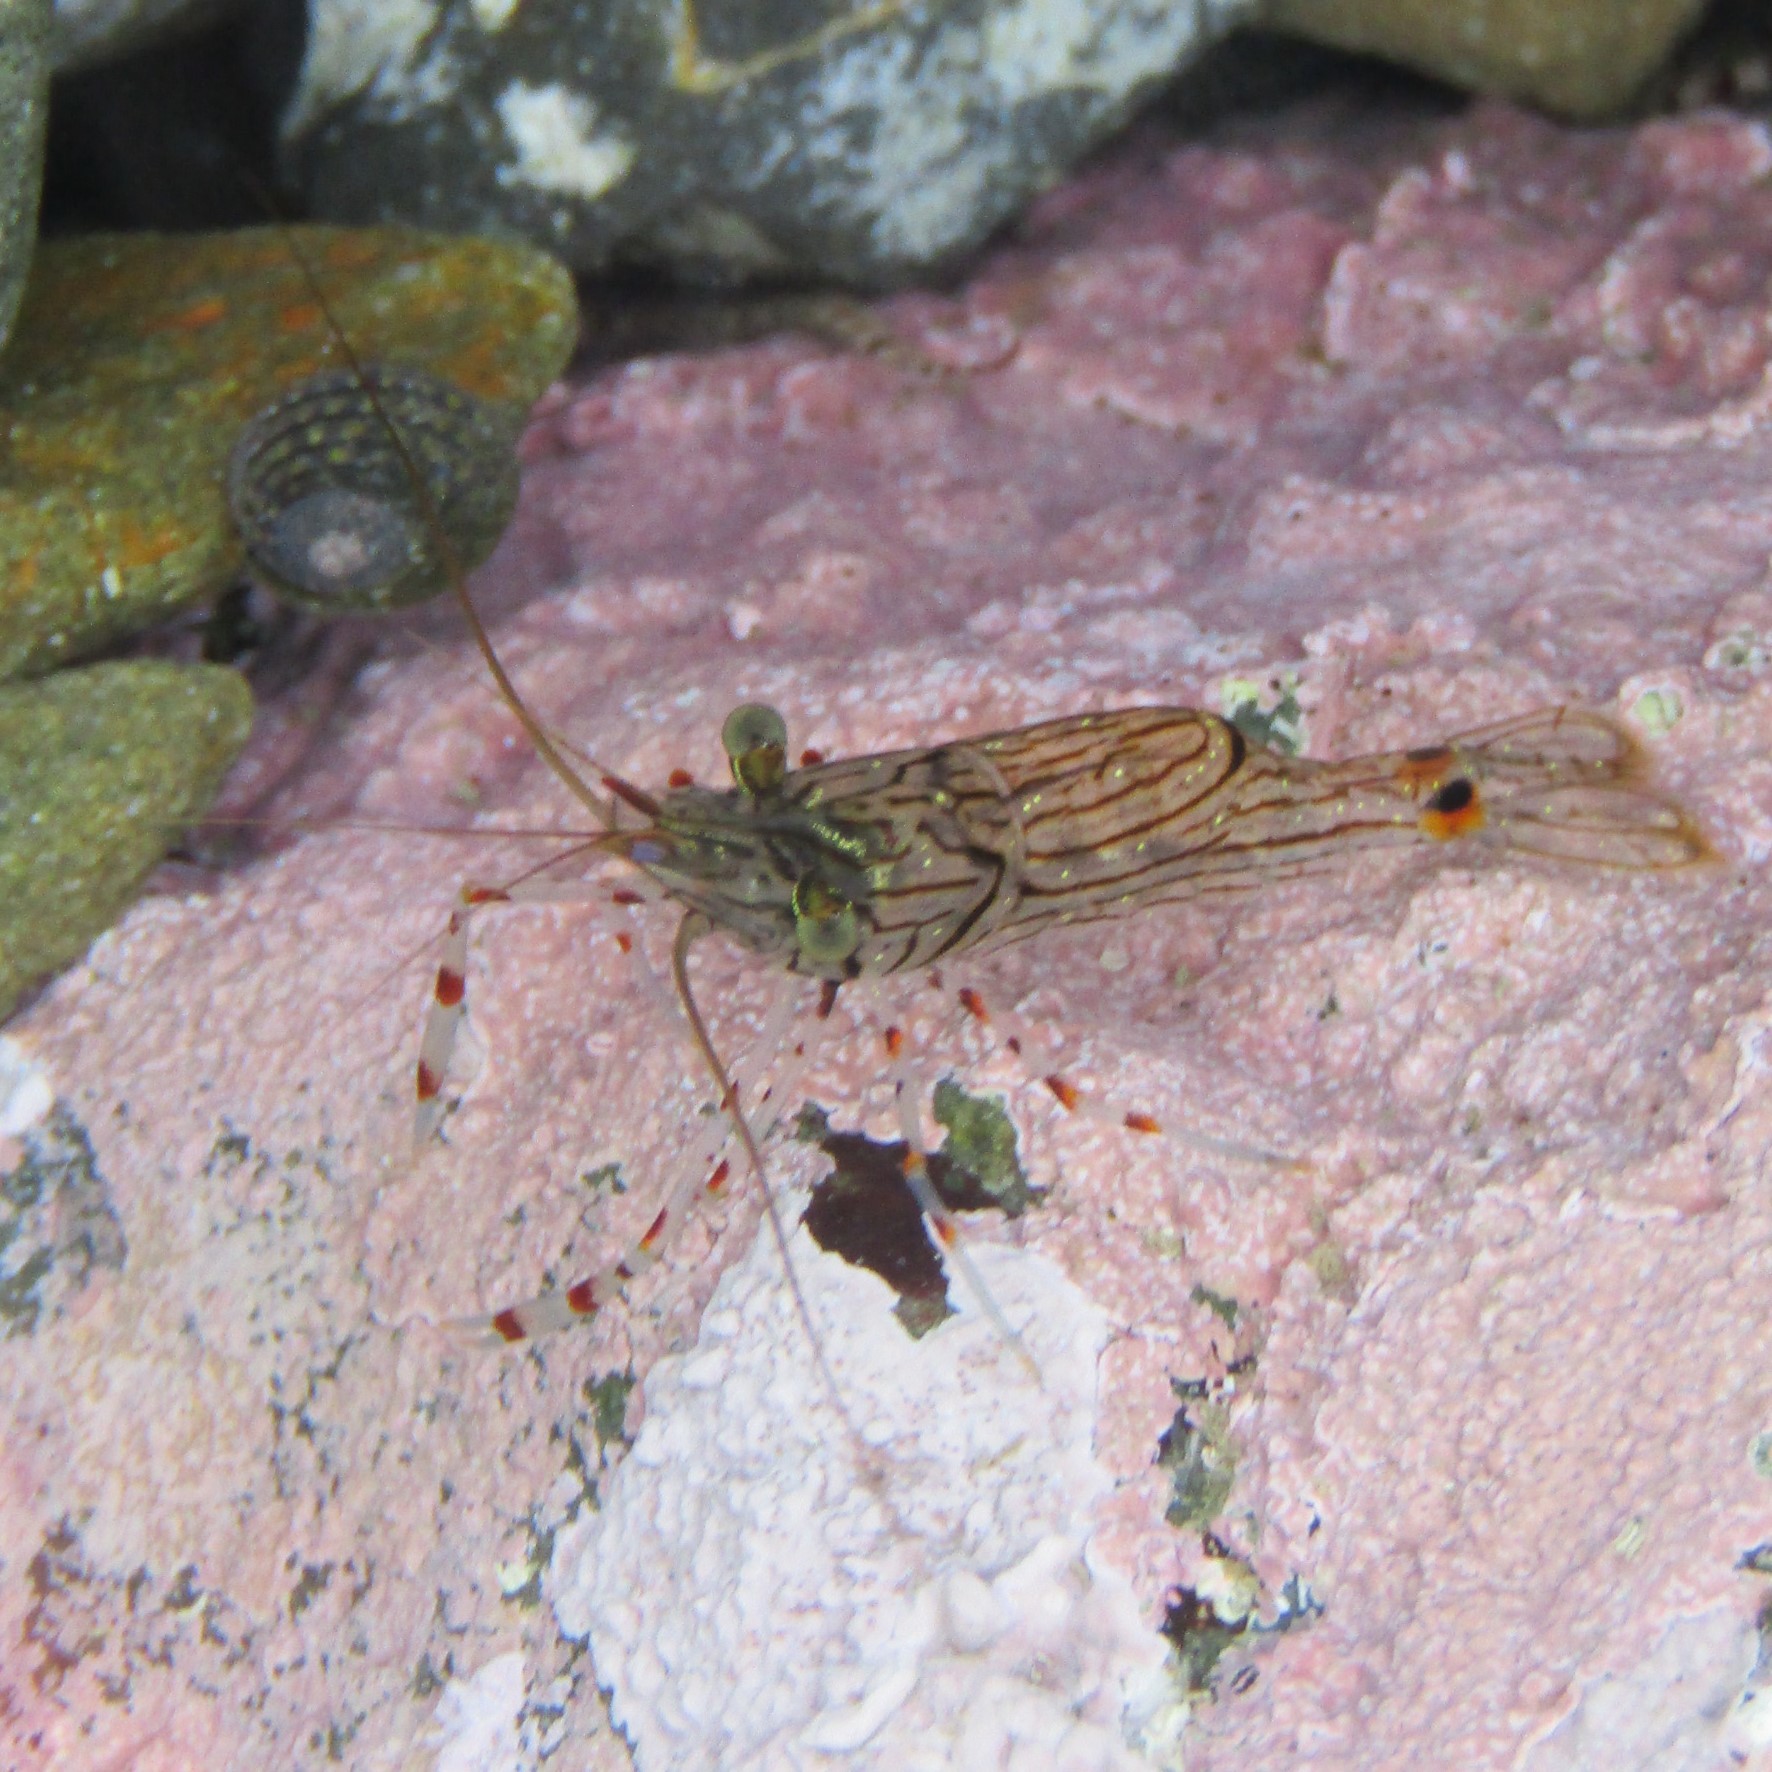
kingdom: Animalia
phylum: Arthropoda
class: Malacostraca
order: Decapoda
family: Palaemonidae
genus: Palaemon
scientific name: Palaemon affinis
